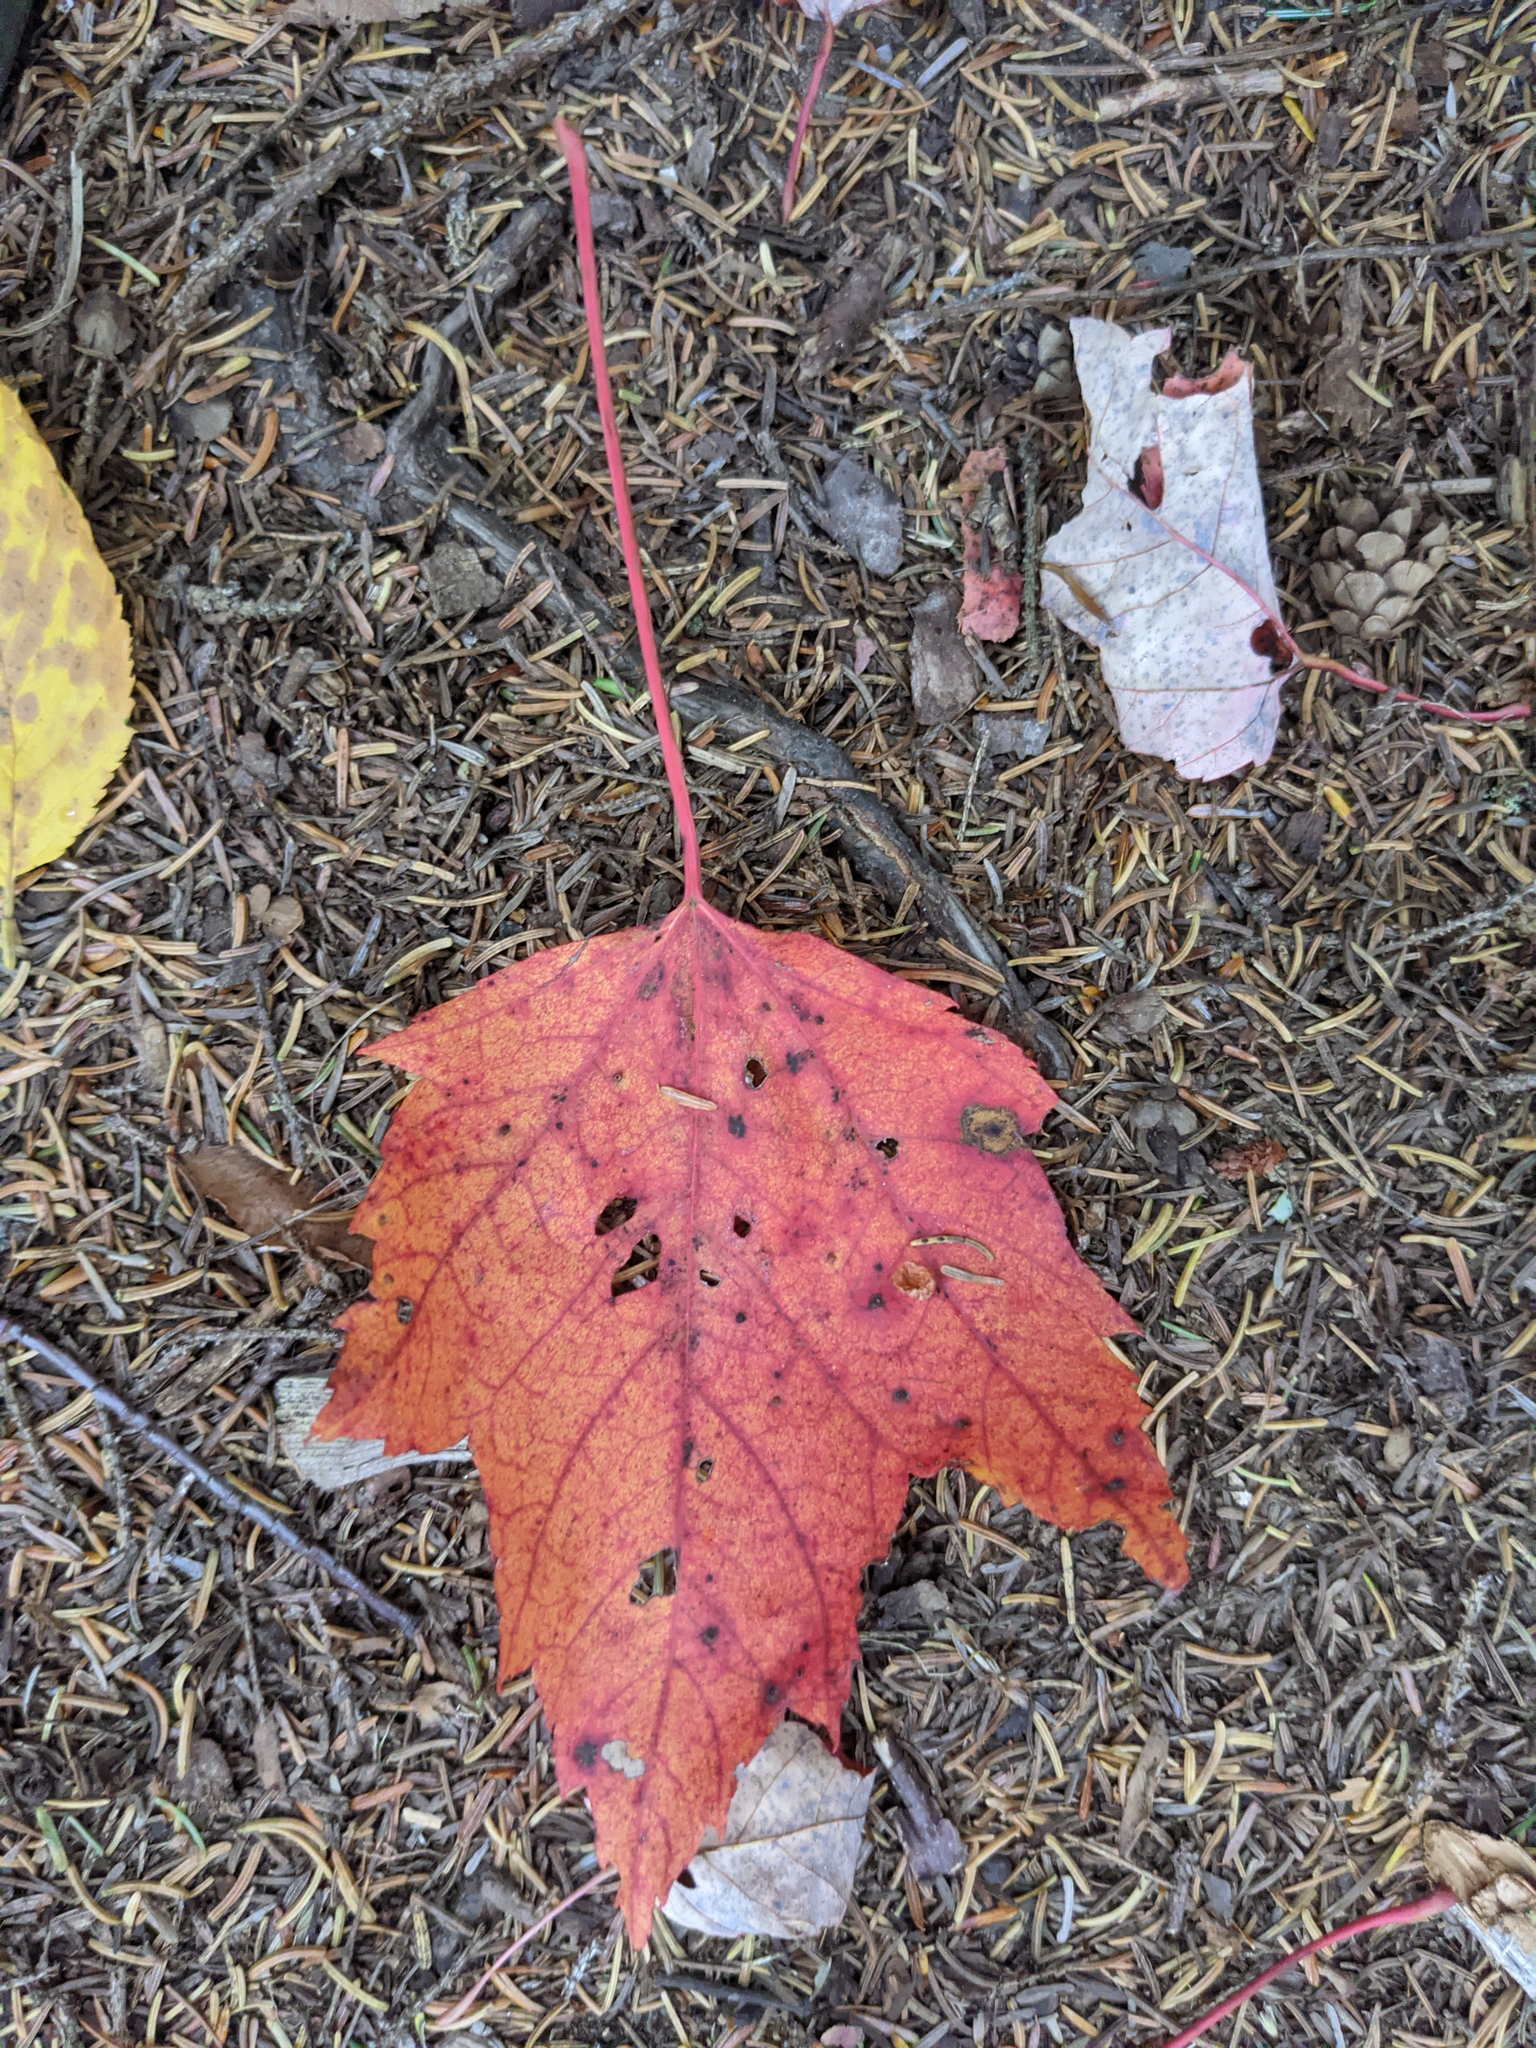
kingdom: Plantae
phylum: Tracheophyta
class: Magnoliopsida
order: Sapindales
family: Sapindaceae
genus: Acer
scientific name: Acer rubrum
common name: Red maple
